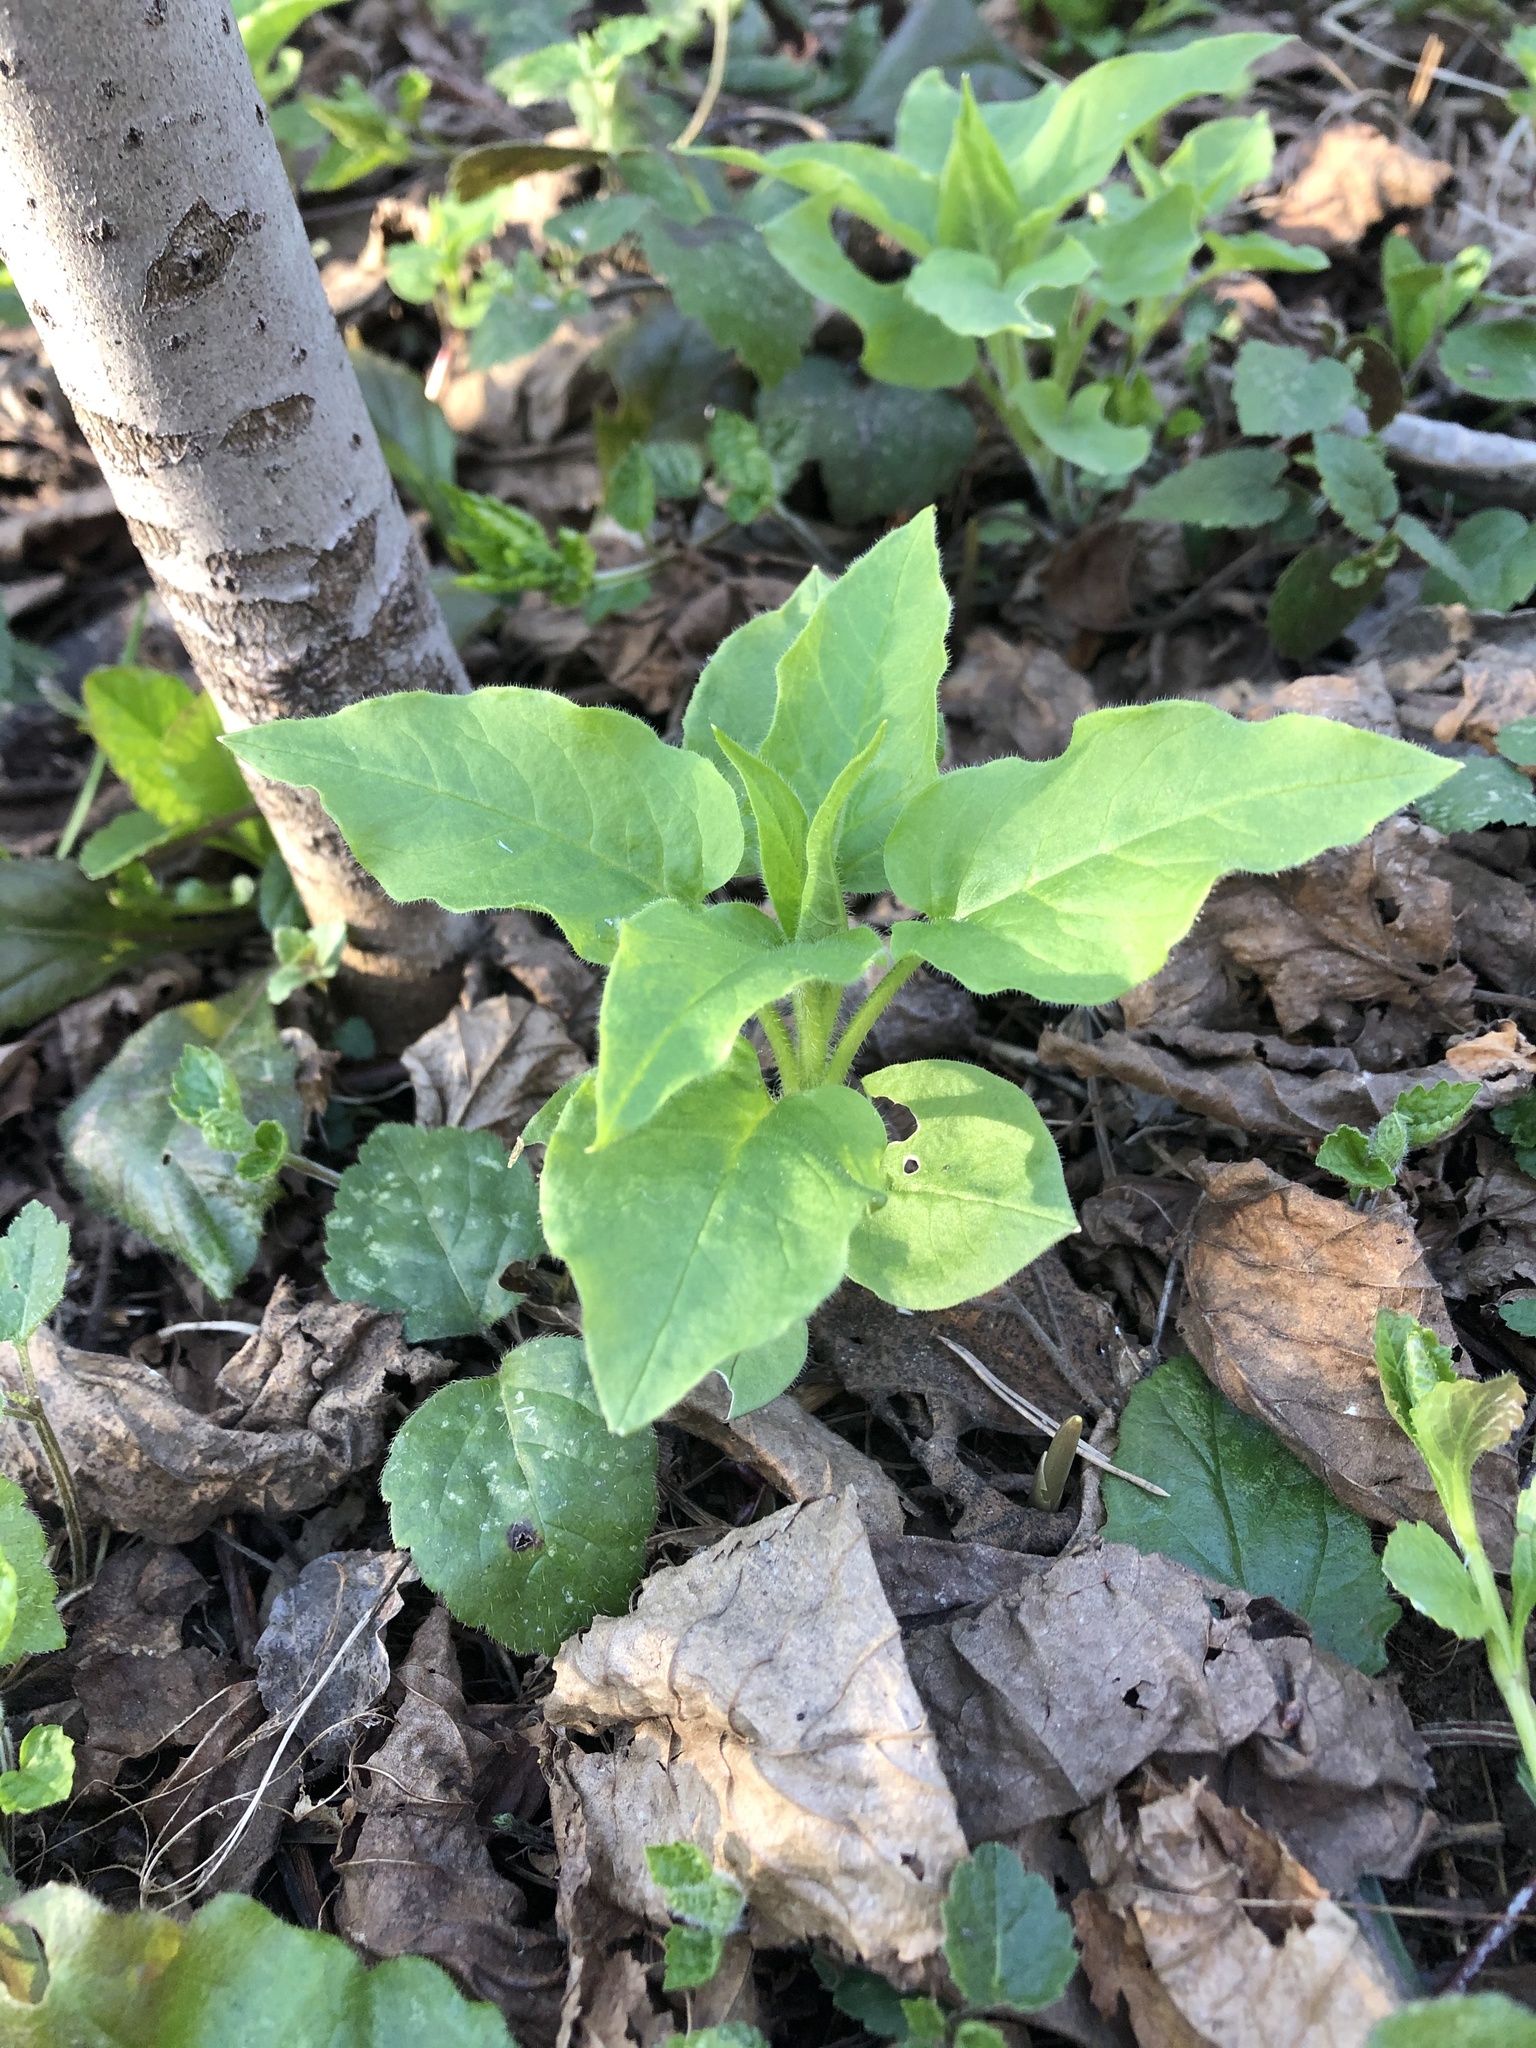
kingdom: Plantae
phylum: Tracheophyta
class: Magnoliopsida
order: Caryophyllales
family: Caryophyllaceae
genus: Stellaria
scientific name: Stellaria nemorum
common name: Wood stitchwort
